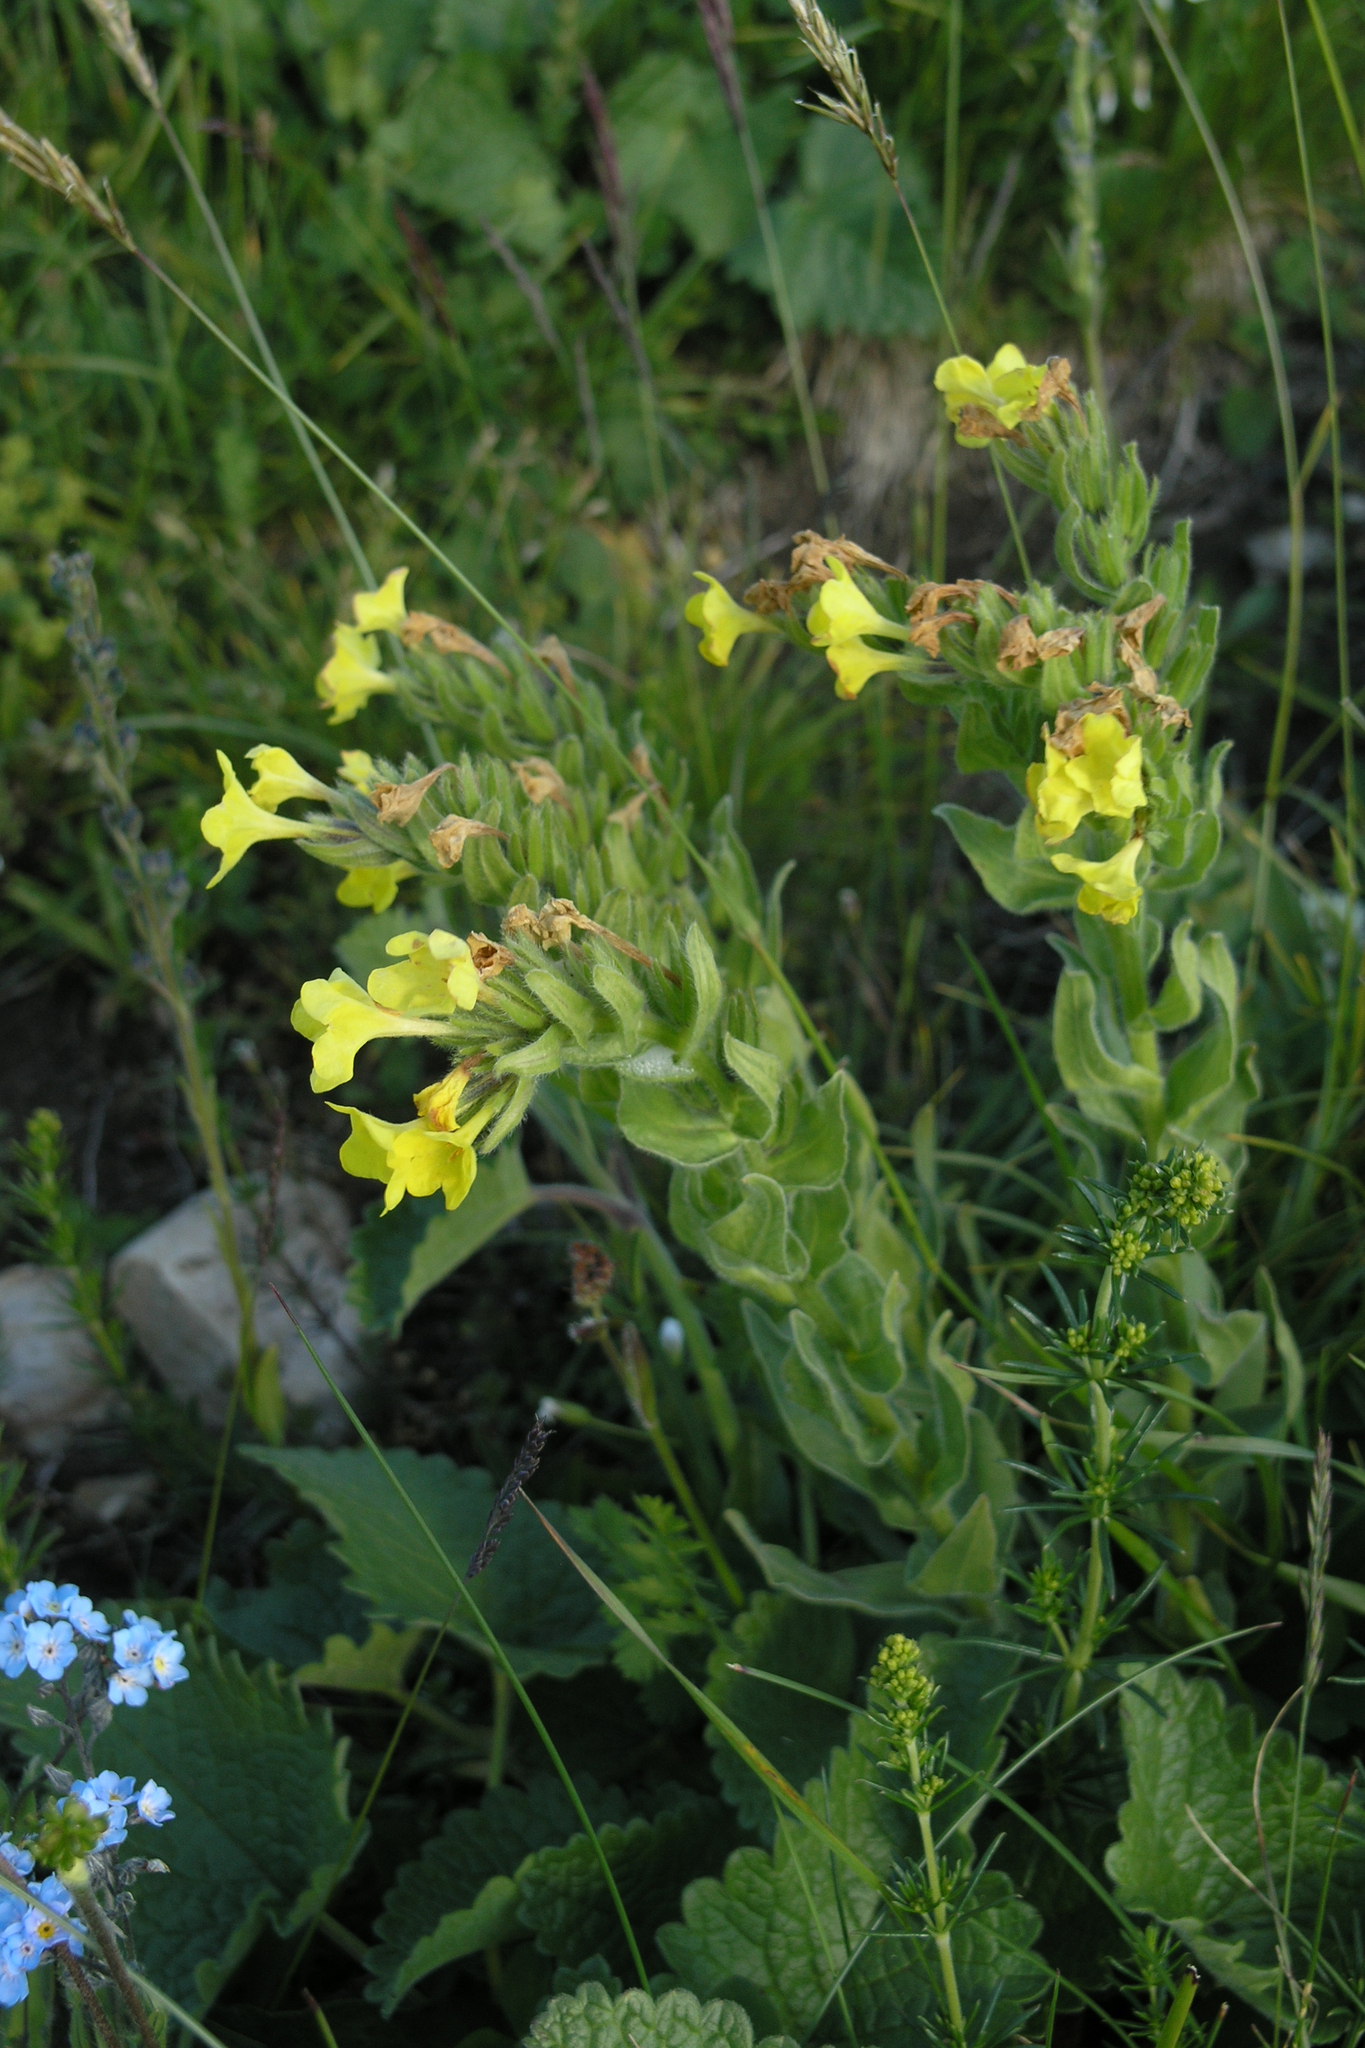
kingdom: Plantae
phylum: Tracheophyta
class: Magnoliopsida
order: Boraginales
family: Boraginaceae
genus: Huynhia
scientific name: Huynhia pulchra
